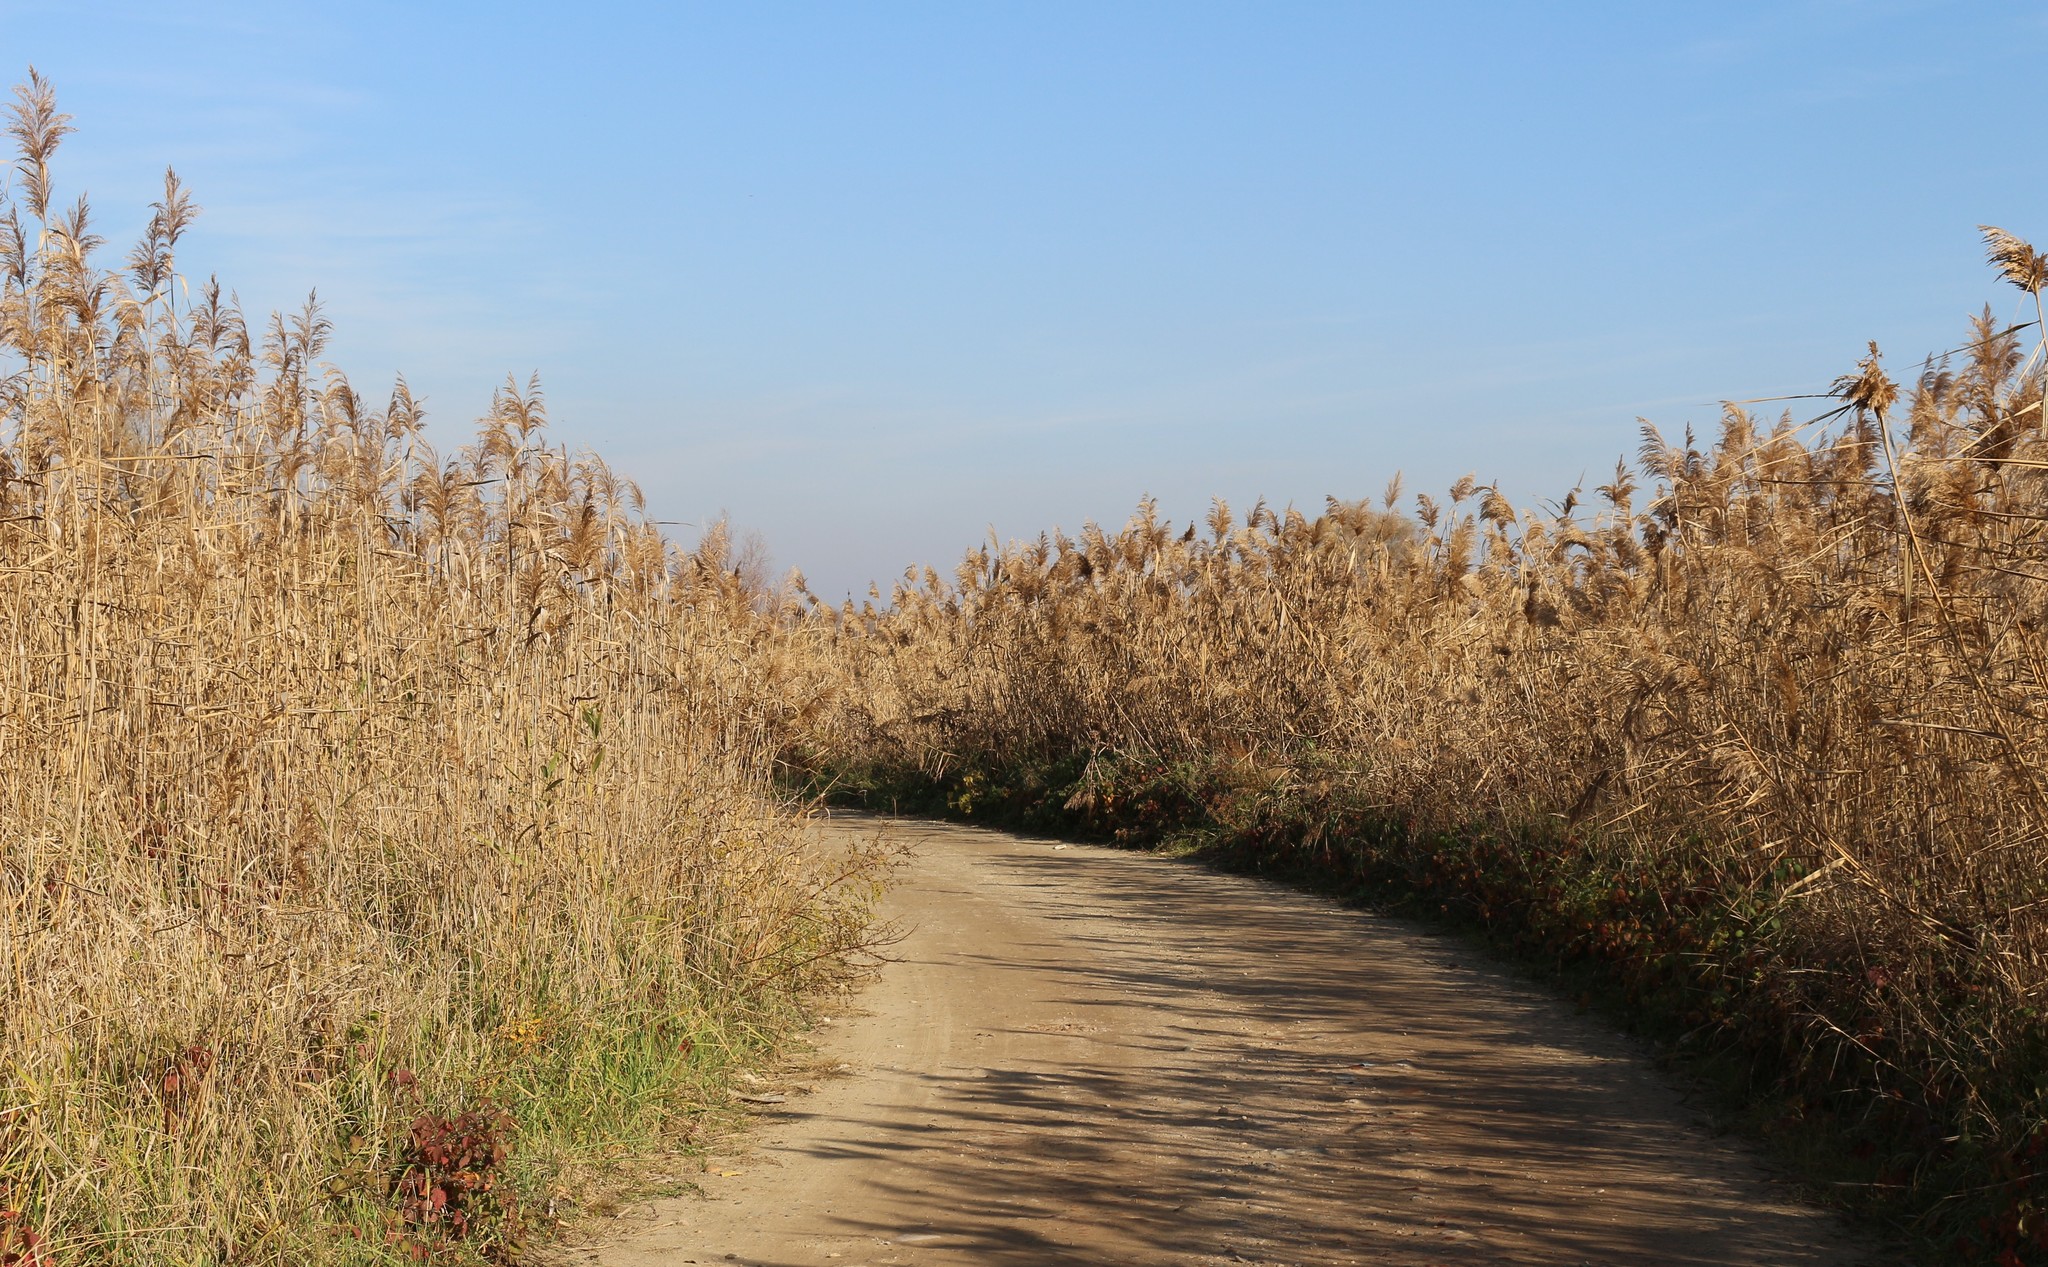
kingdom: Plantae
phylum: Tracheophyta
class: Liliopsida
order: Poales
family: Poaceae
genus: Phragmites
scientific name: Phragmites australis
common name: Common reed
